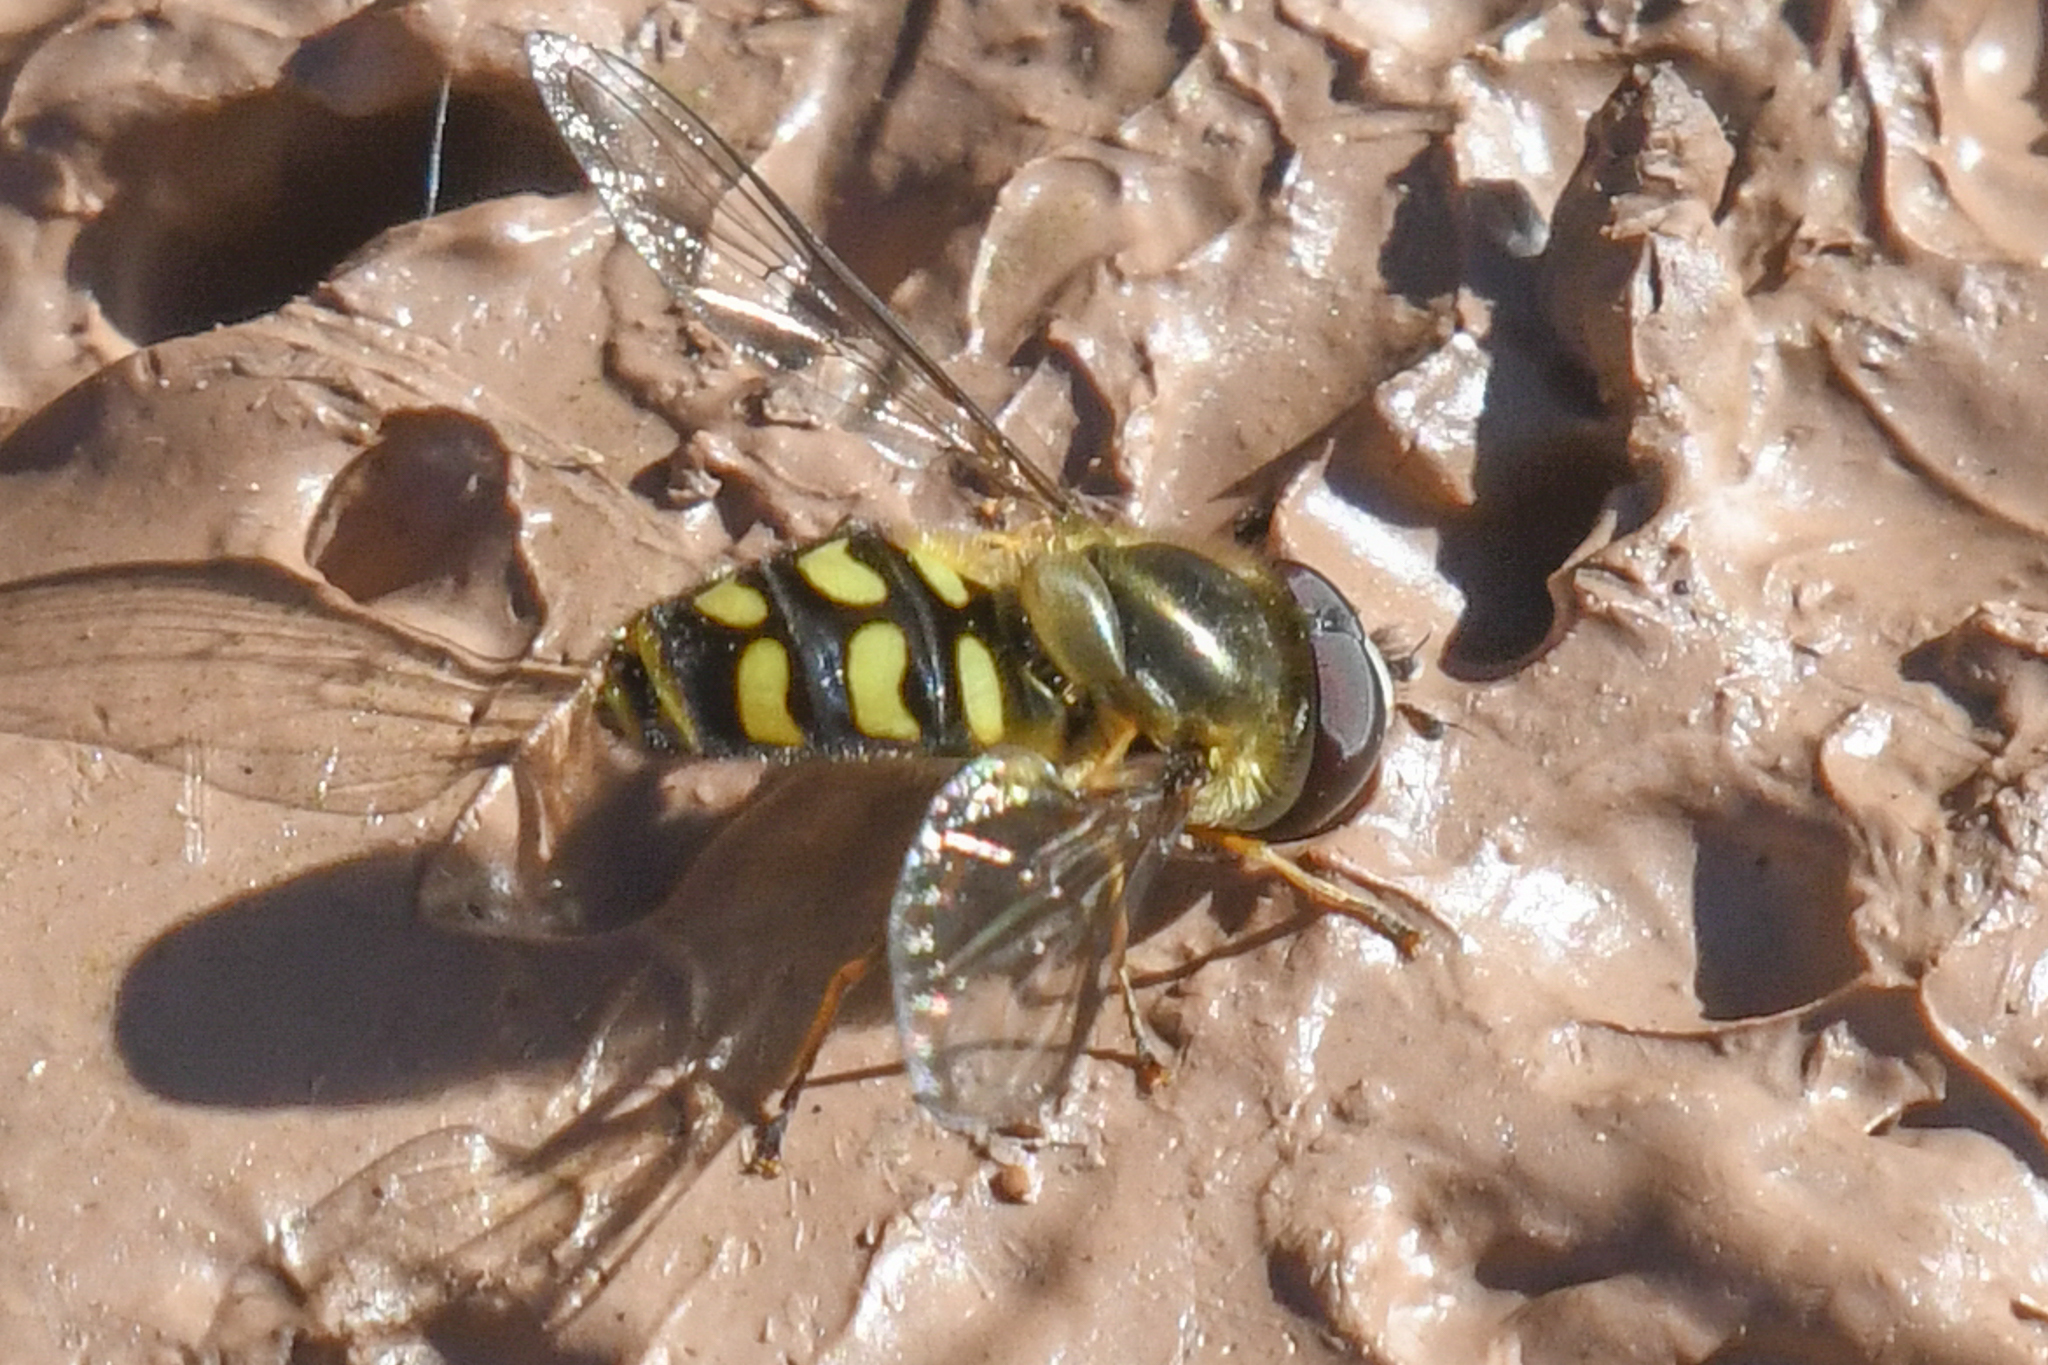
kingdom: Animalia
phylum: Arthropoda
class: Insecta
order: Diptera
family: Syrphidae
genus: Lapposyrphus
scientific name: Lapposyrphus lapponicus
